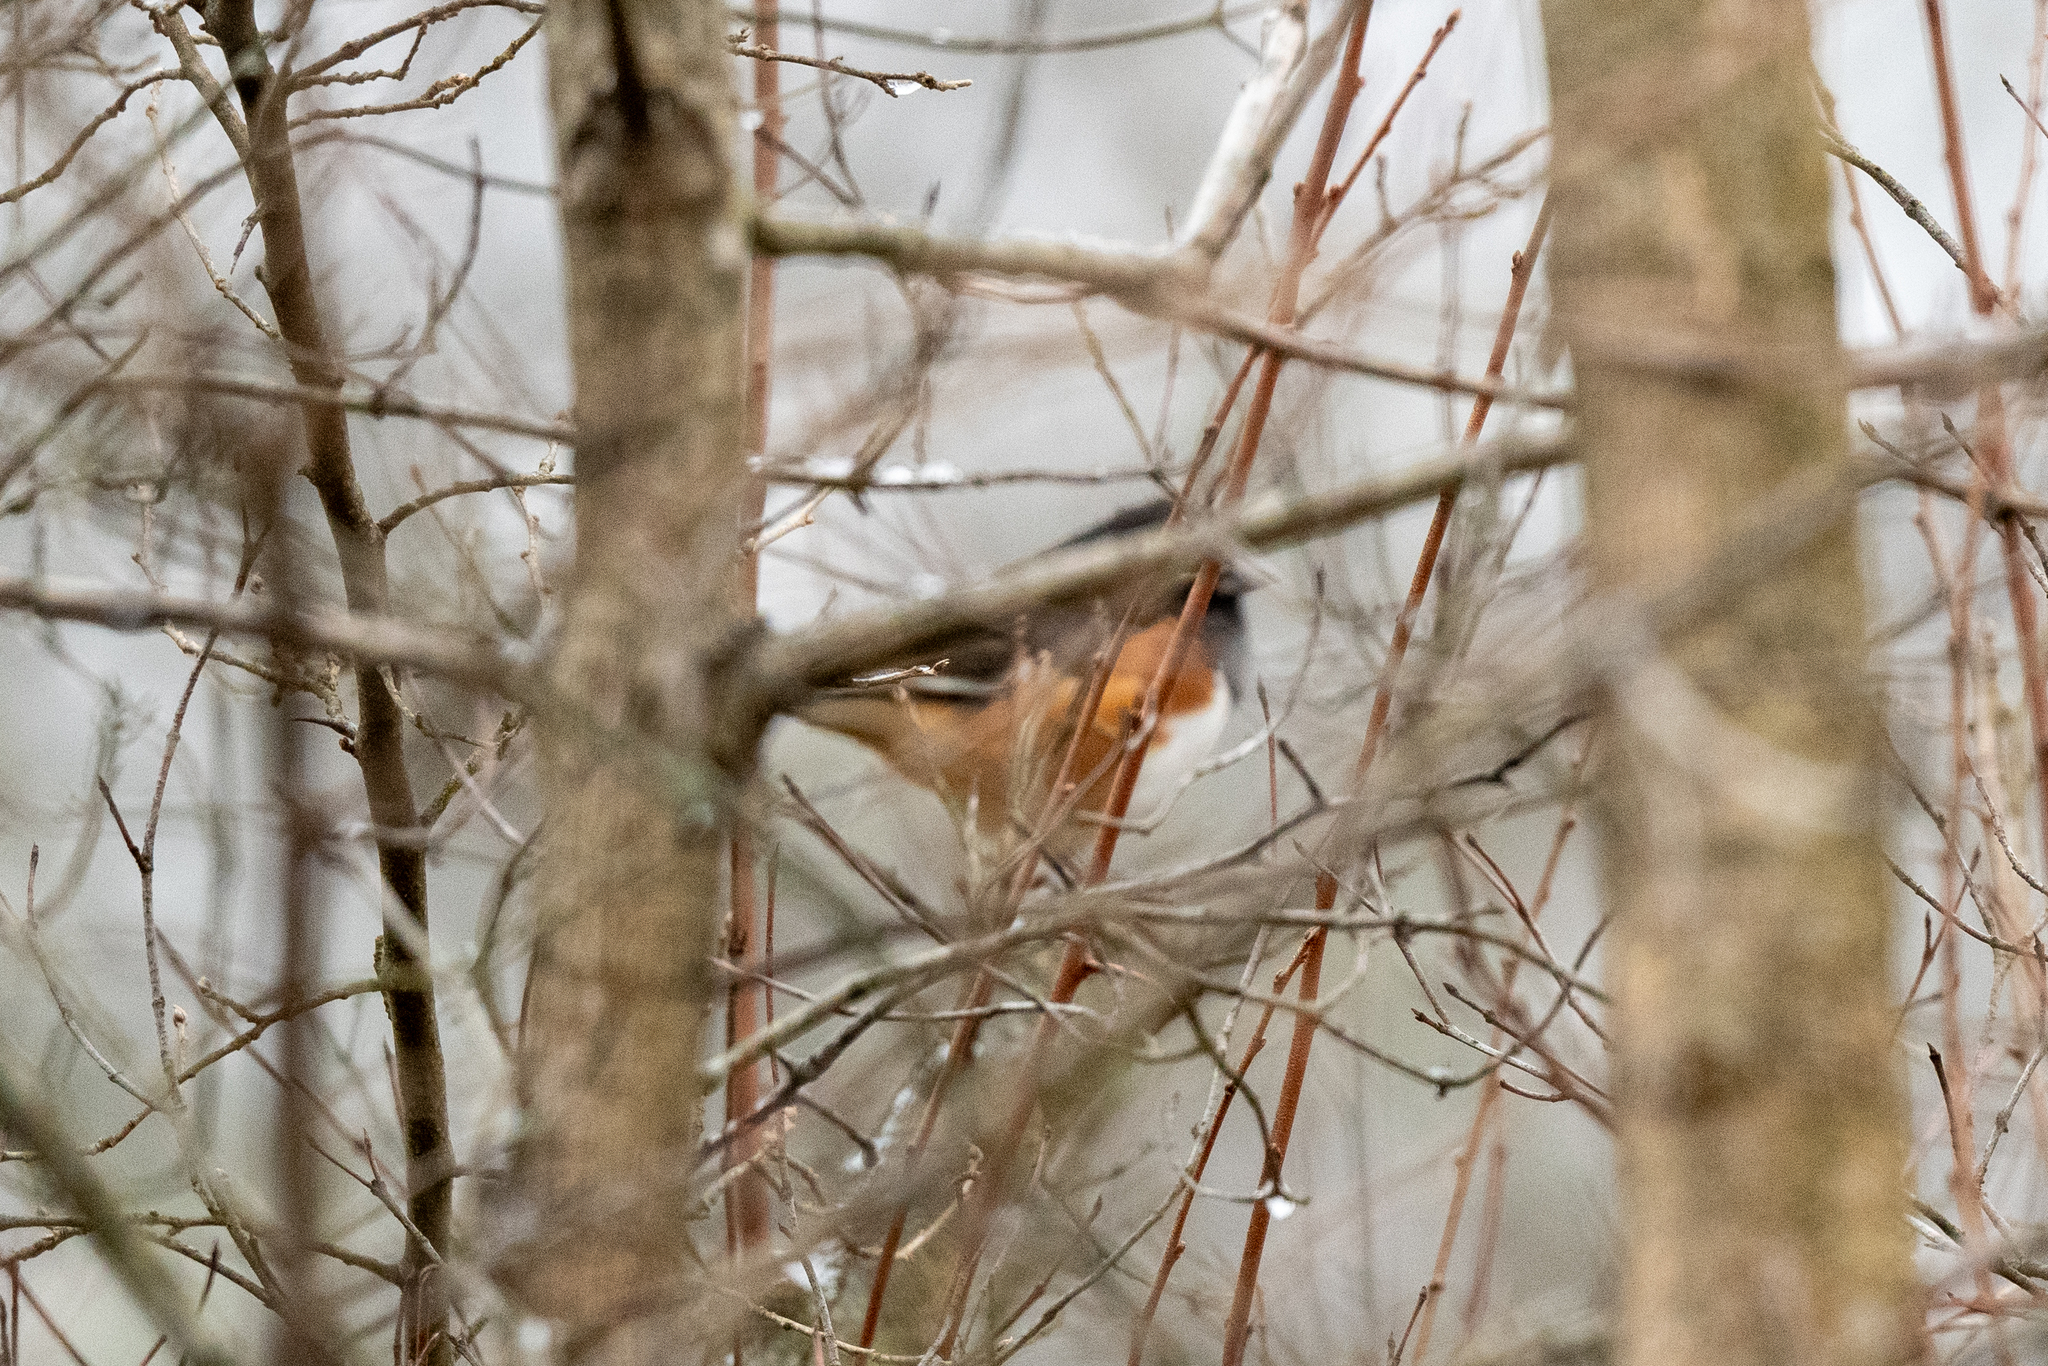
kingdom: Animalia
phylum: Chordata
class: Aves
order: Passeriformes
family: Passerellidae
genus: Pipilo
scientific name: Pipilo erythrophthalmus
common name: Eastern towhee
